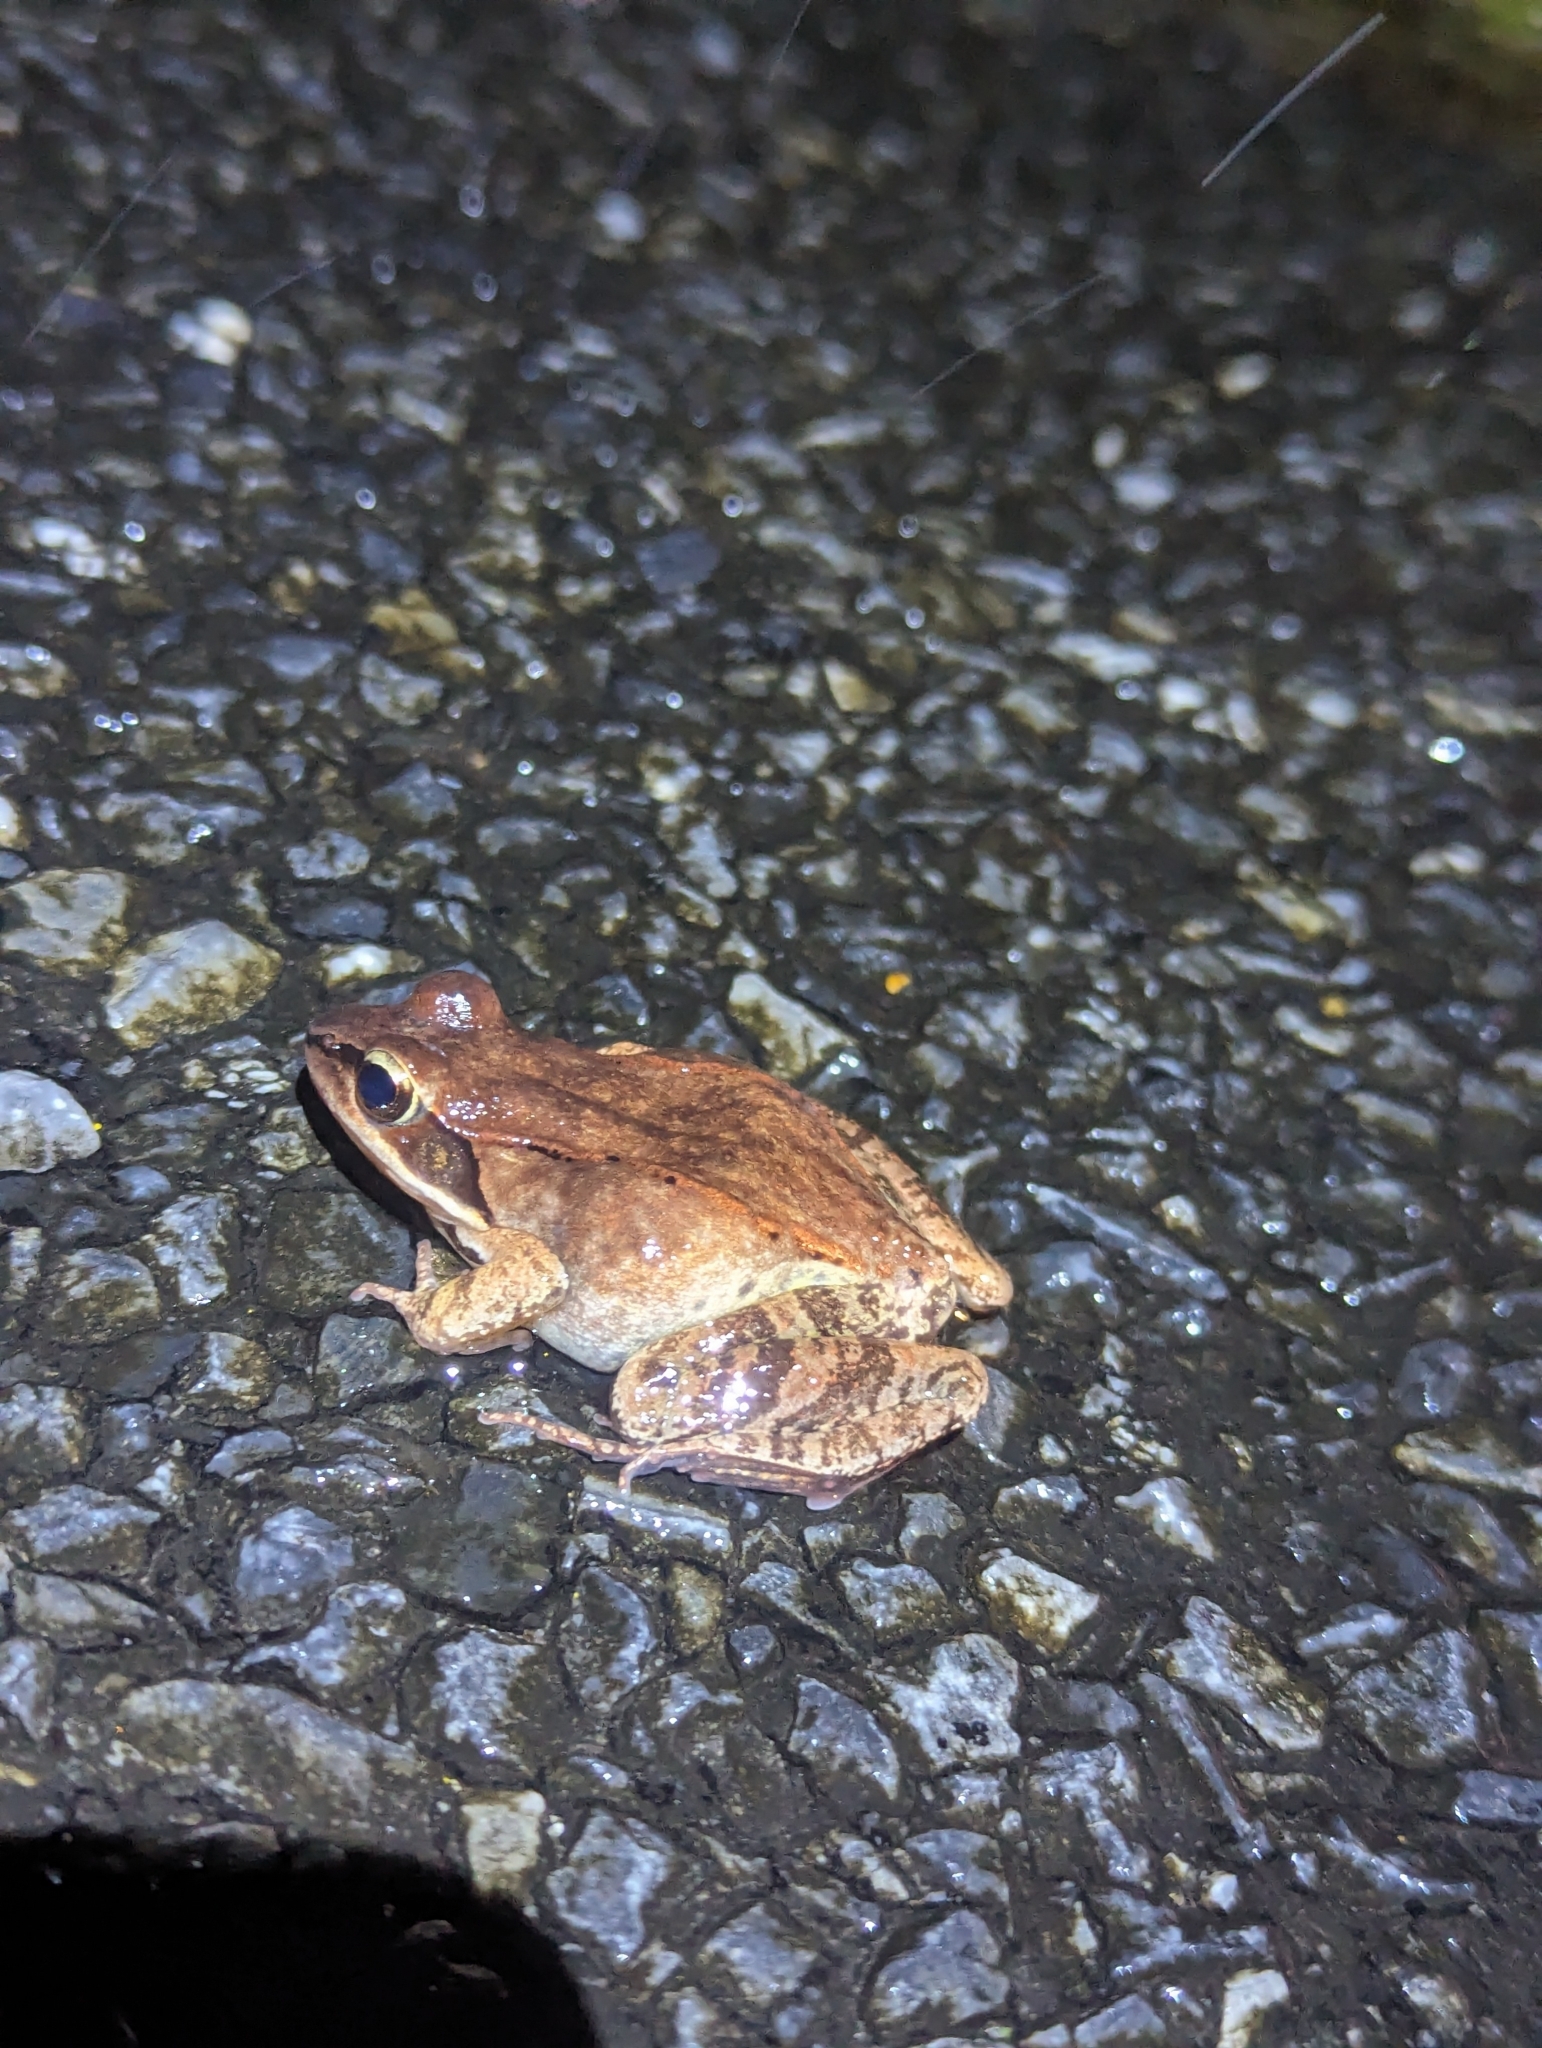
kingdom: Animalia
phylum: Chordata
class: Amphibia
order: Anura
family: Ranidae
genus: Lithobates
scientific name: Lithobates sylvaticus
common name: Wood frog
